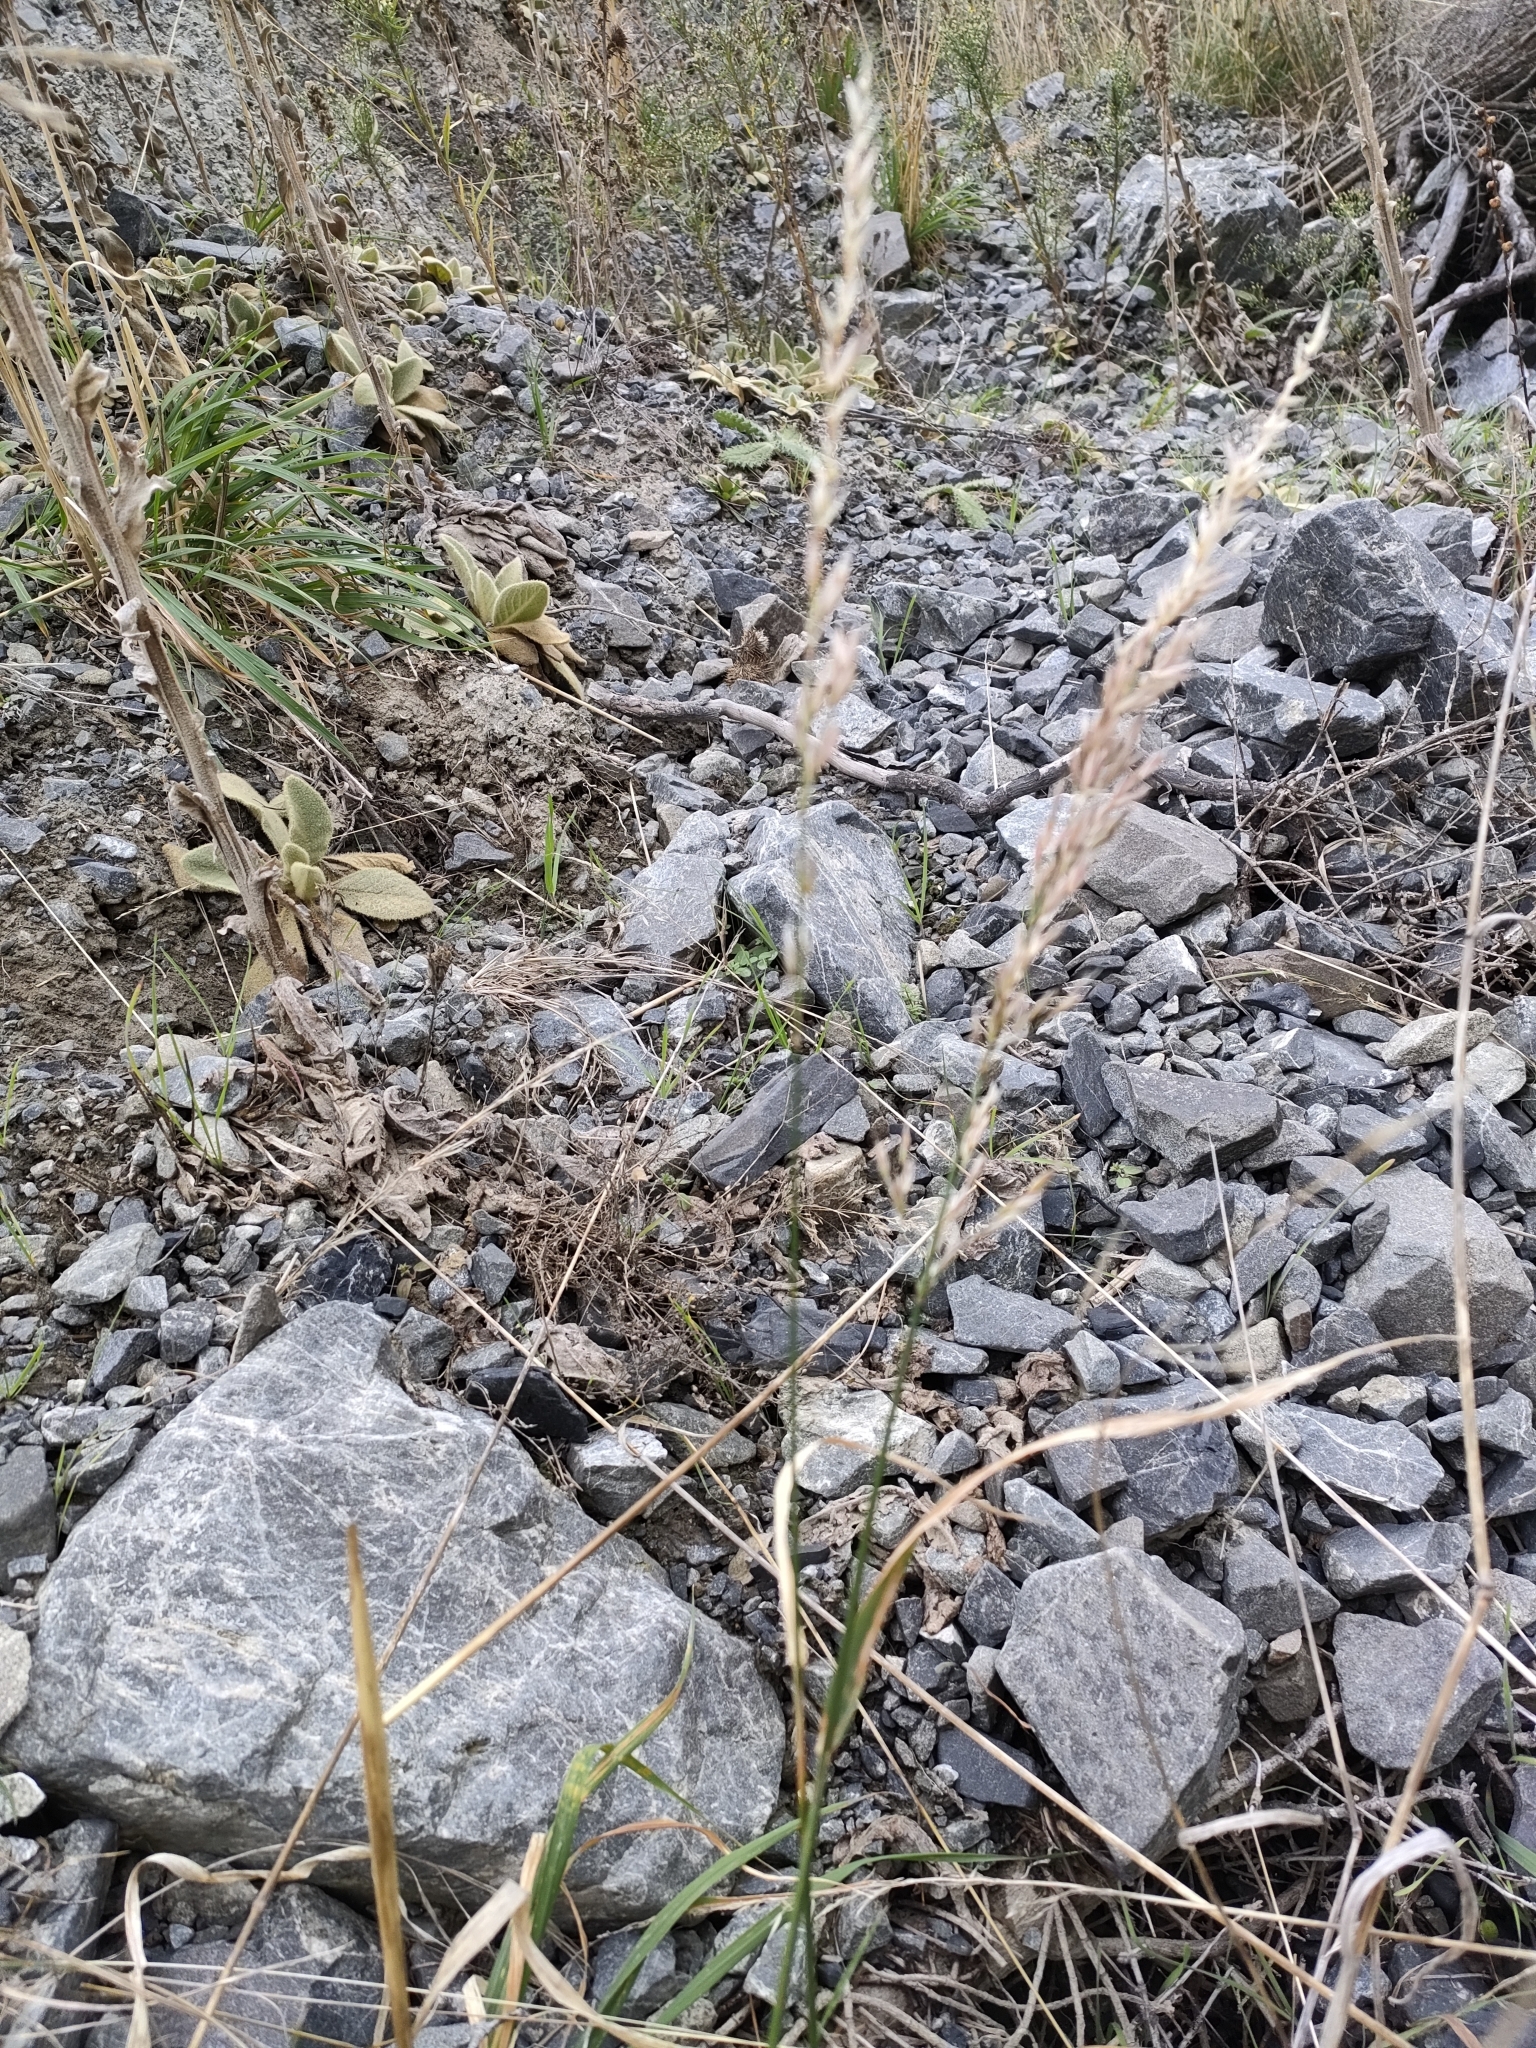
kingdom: Plantae
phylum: Tracheophyta
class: Liliopsida
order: Poales
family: Poaceae
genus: Arrhenatherum
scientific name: Arrhenatherum elatius
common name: Tall oatgrass
